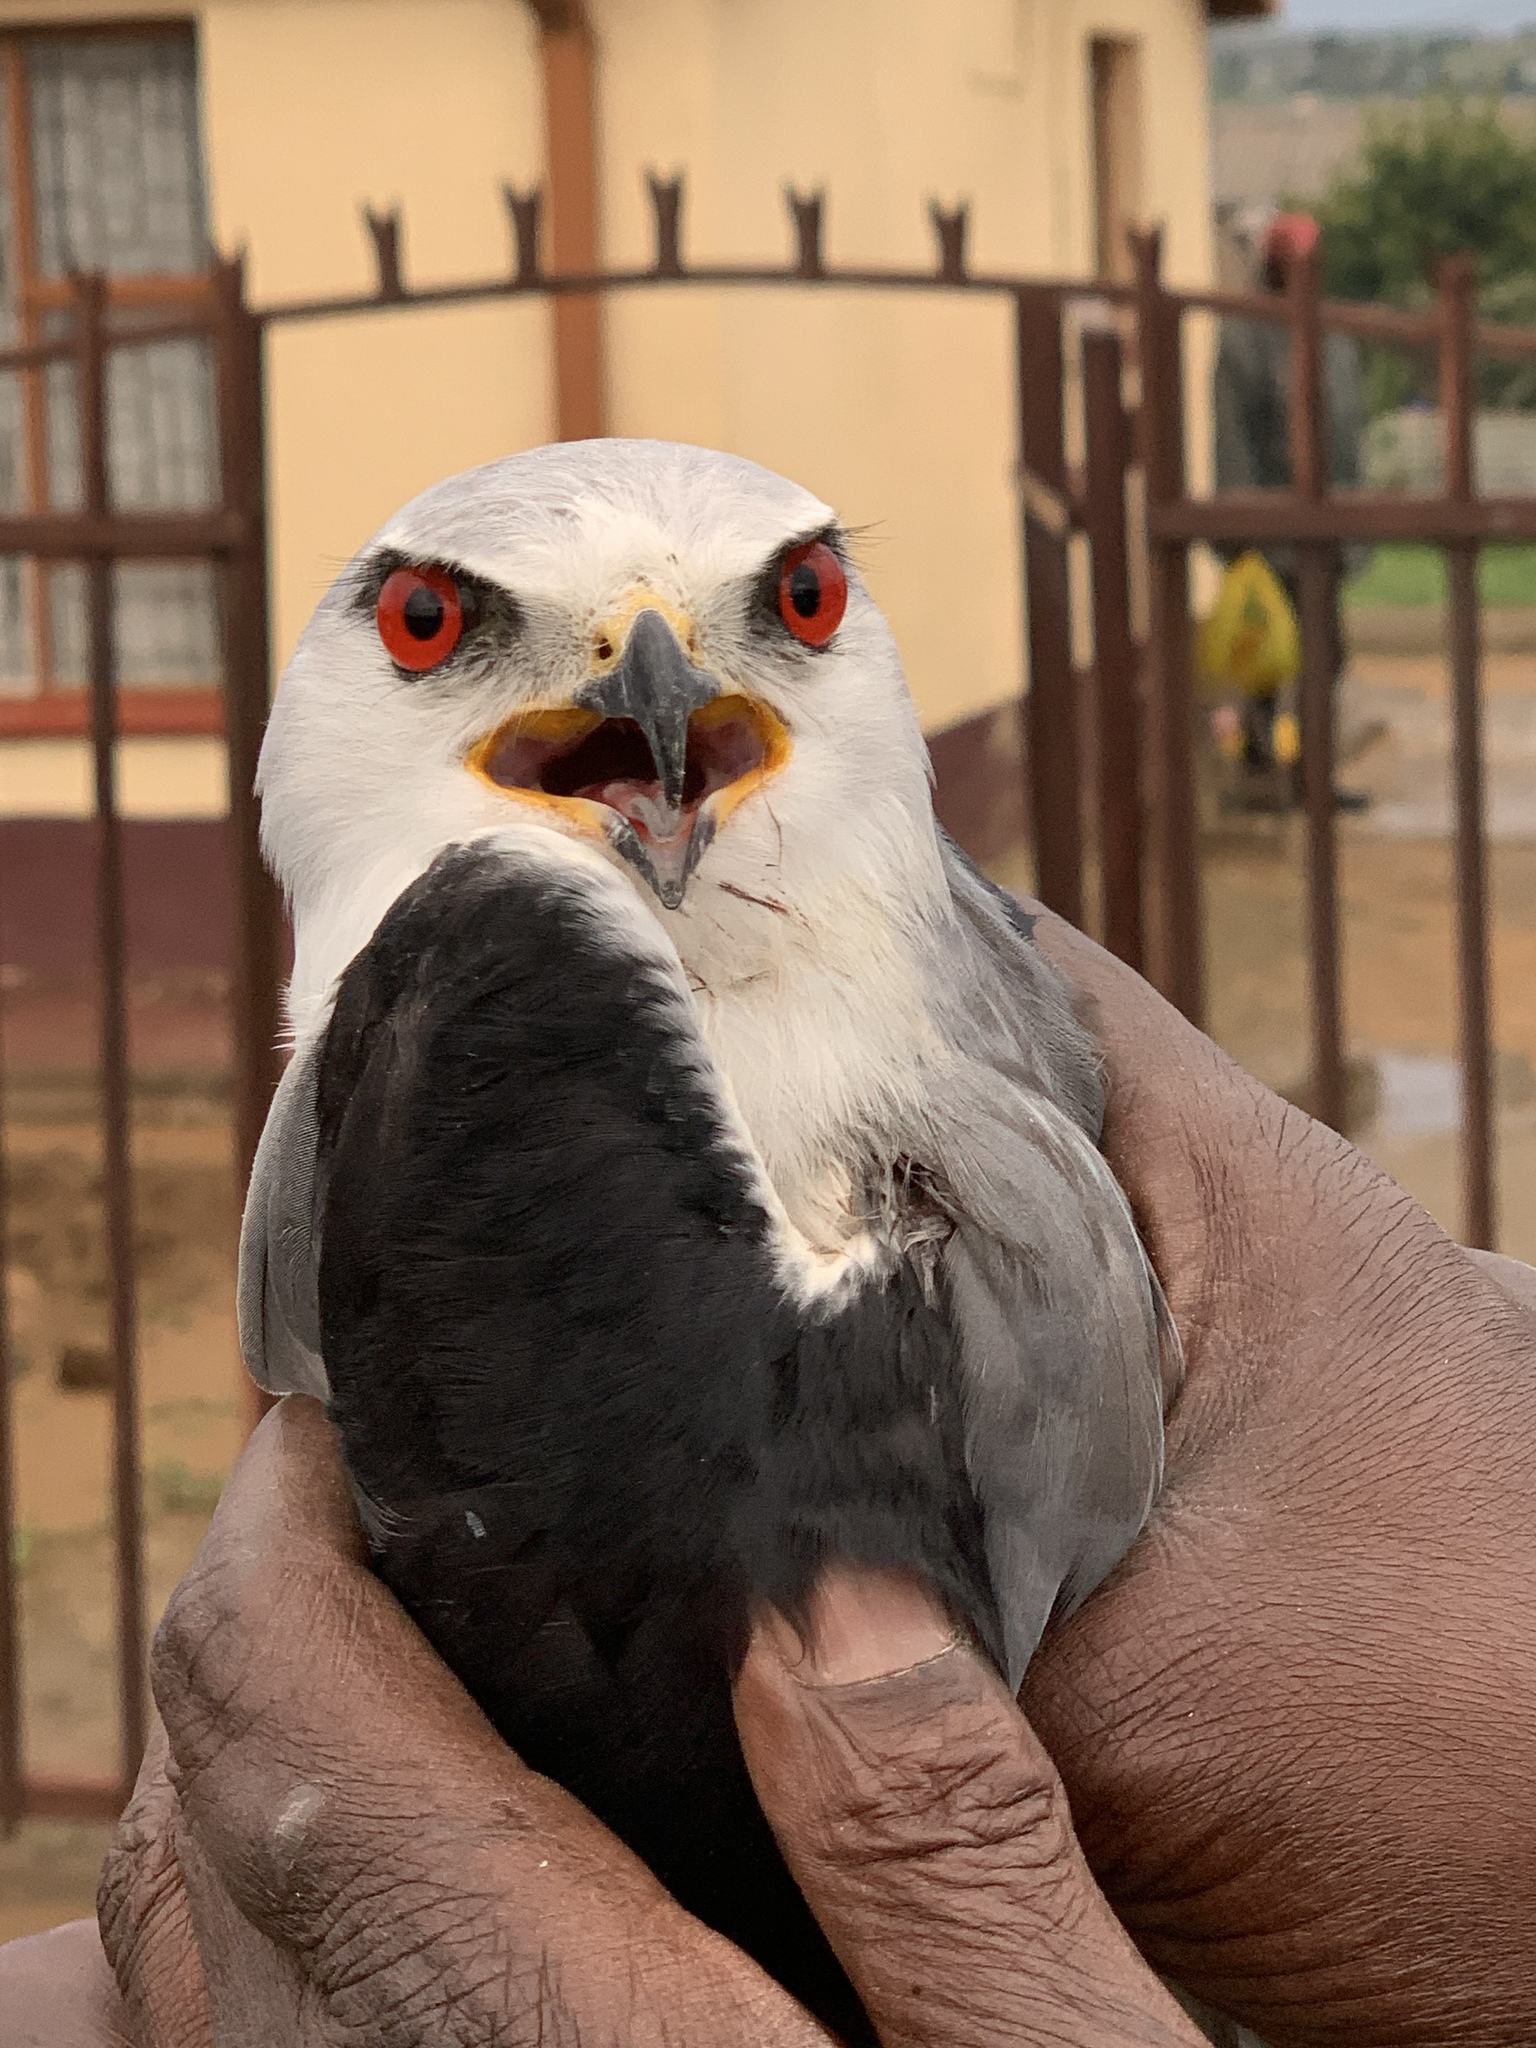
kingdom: Animalia
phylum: Chordata
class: Aves
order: Accipitriformes
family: Accipitridae
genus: Elanus
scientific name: Elanus caeruleus
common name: Black-winged kite
